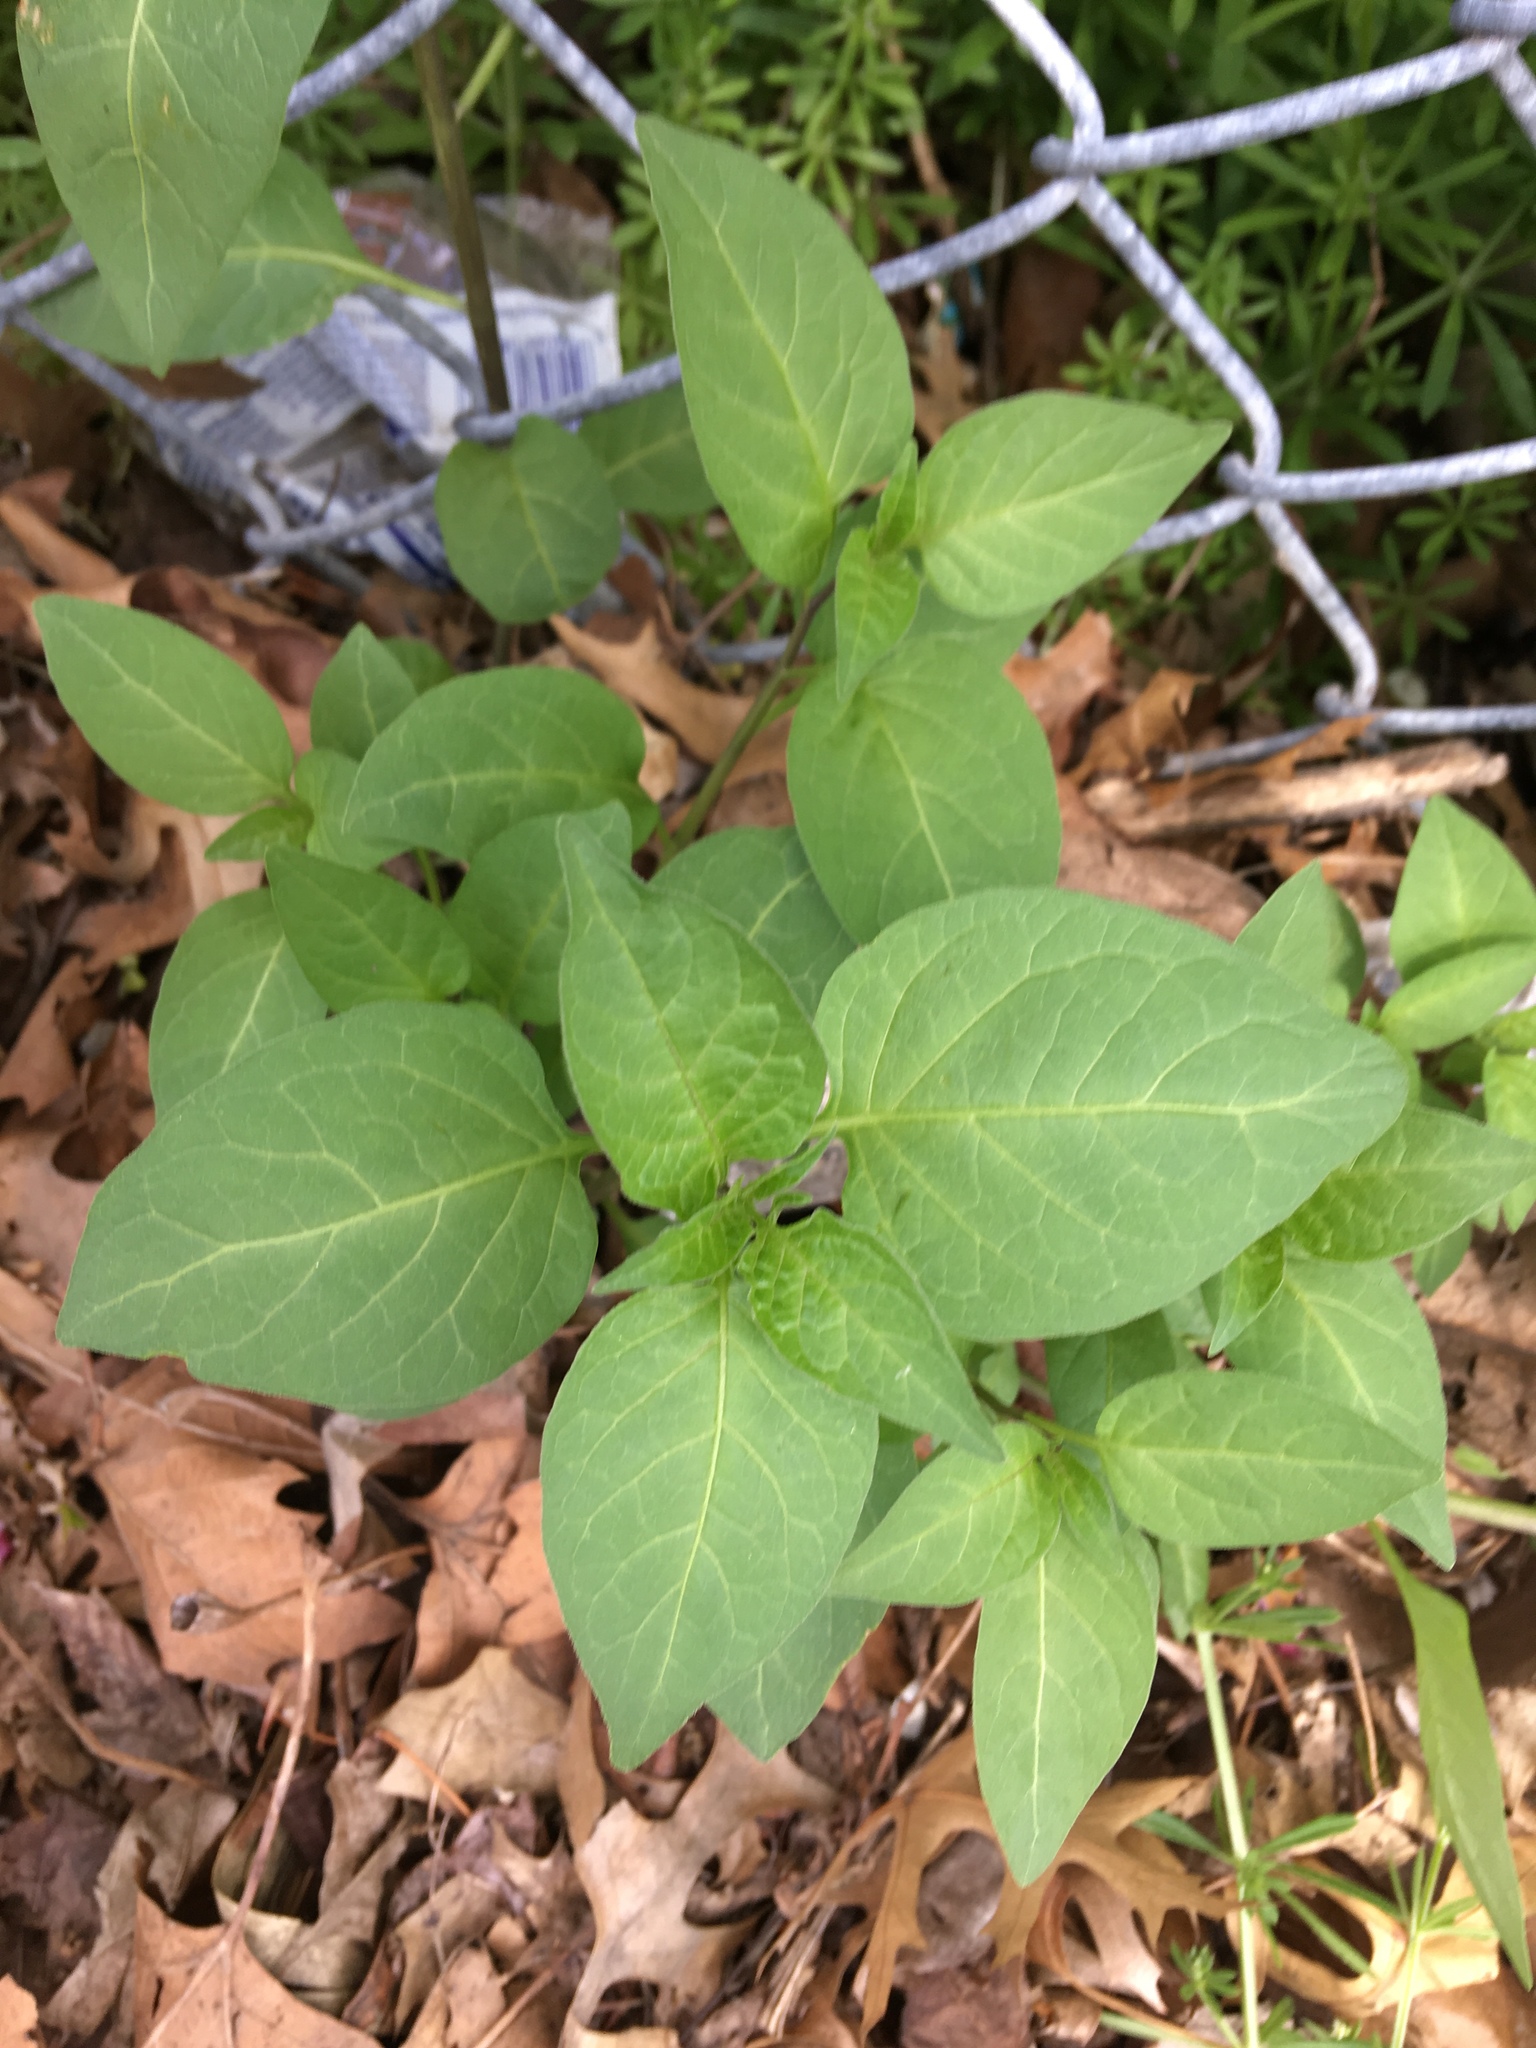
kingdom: Plantae
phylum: Tracheophyta
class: Magnoliopsida
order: Solanales
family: Solanaceae
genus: Solanum
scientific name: Solanum dulcamara
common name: Climbing nightshade
